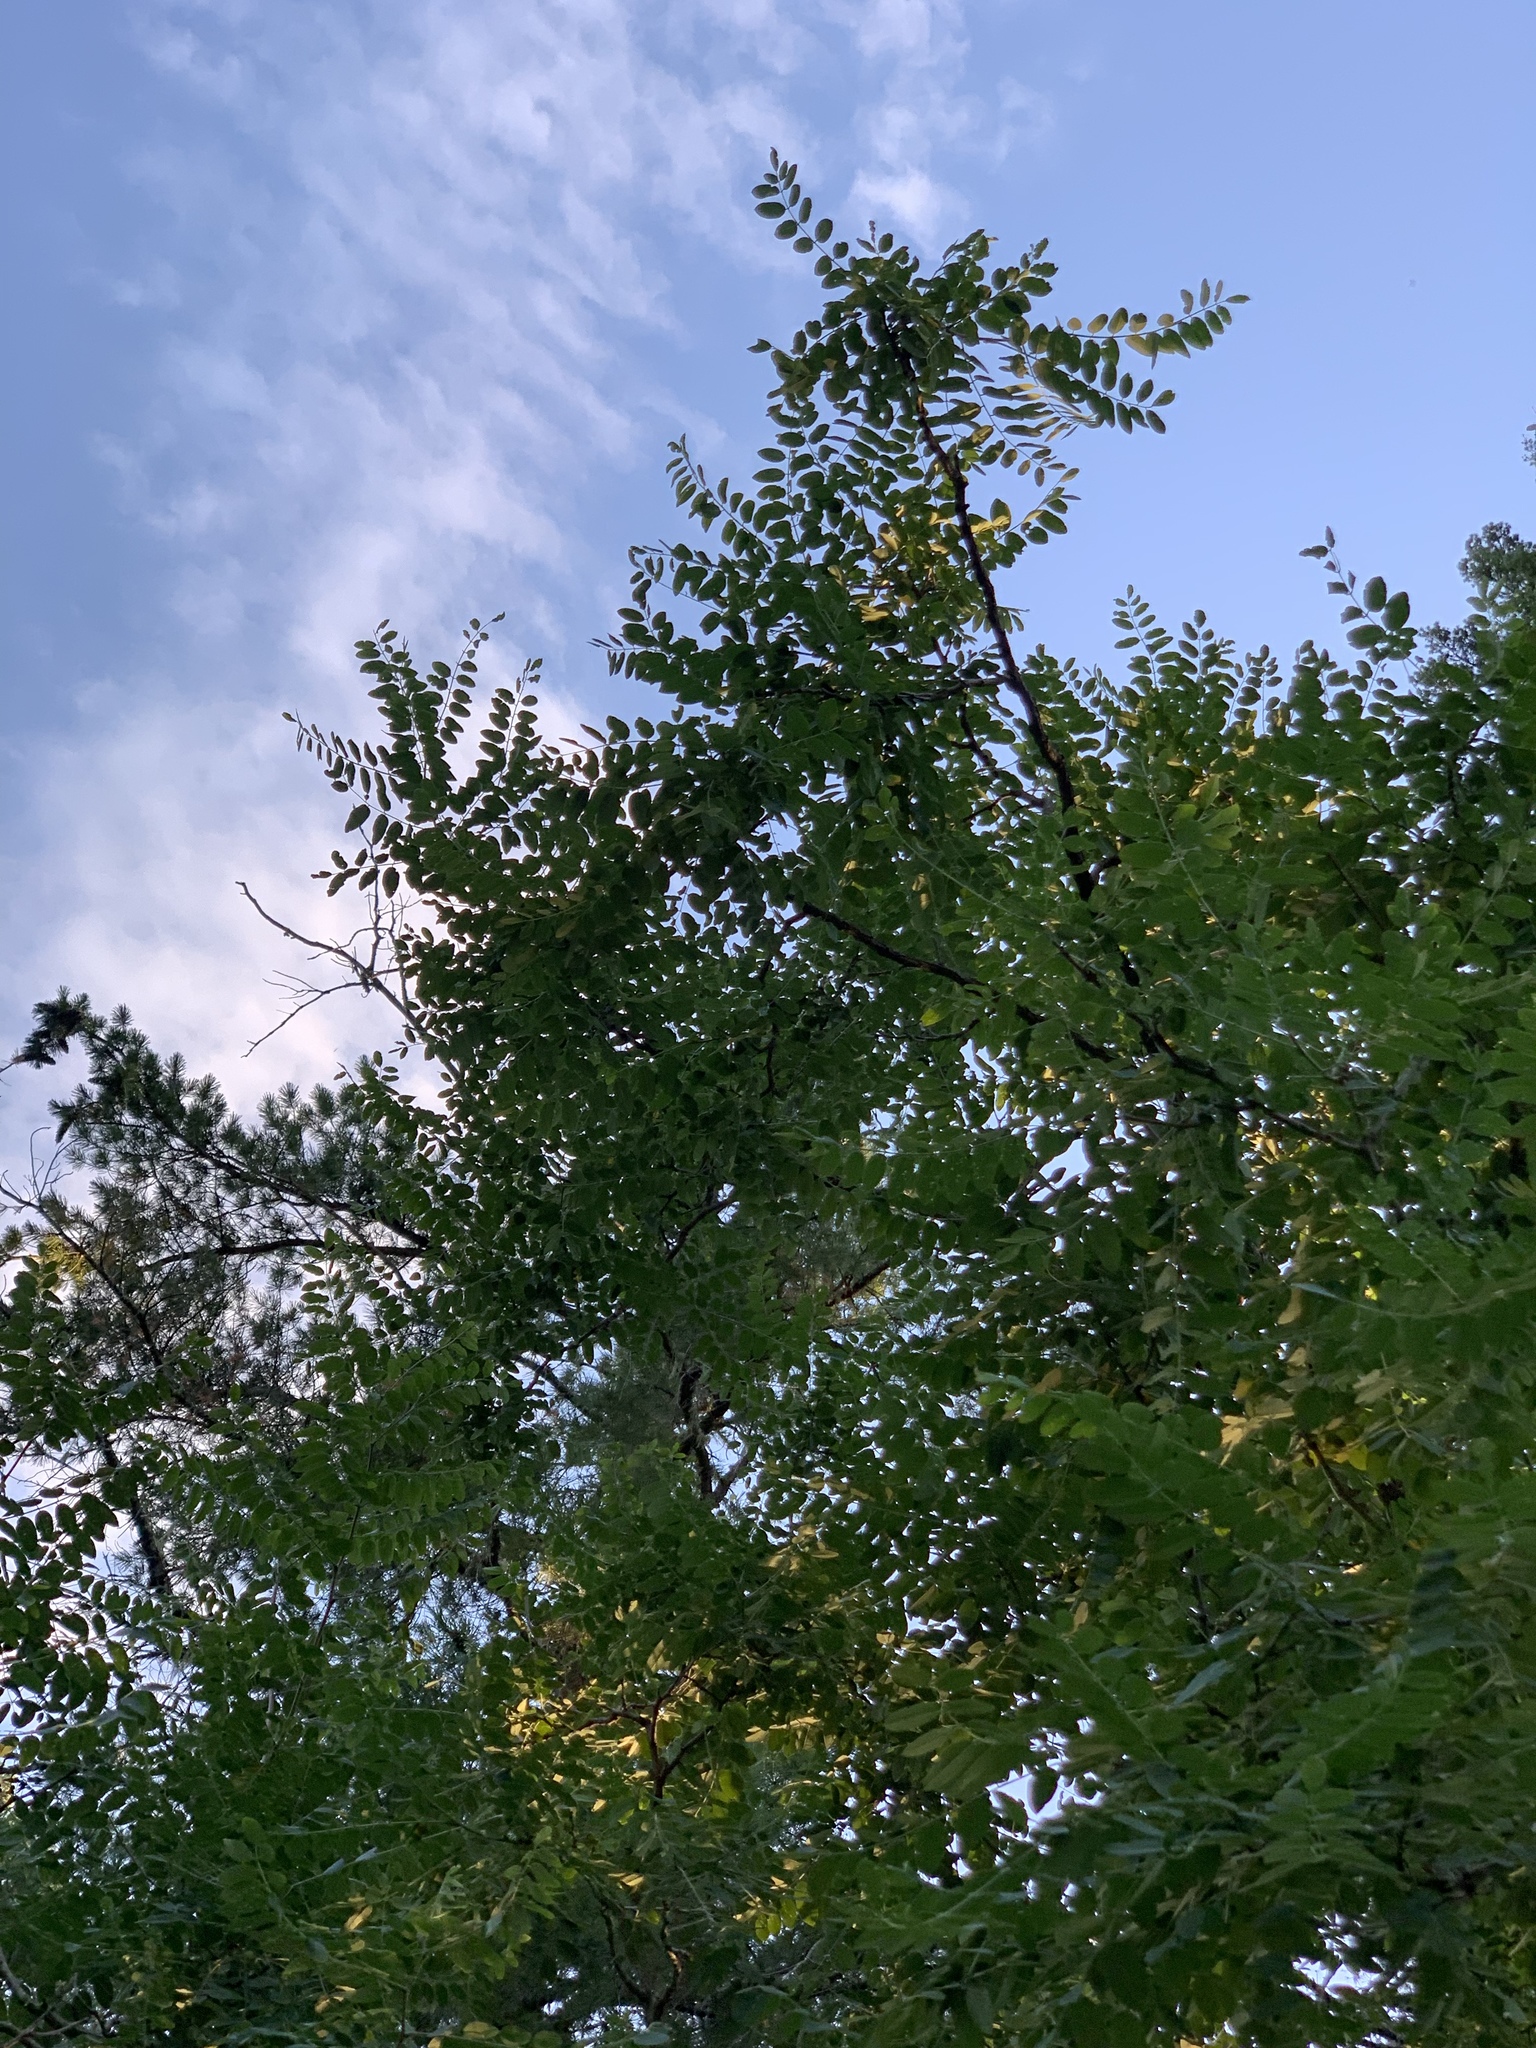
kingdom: Plantae
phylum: Tracheophyta
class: Magnoliopsida
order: Fabales
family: Fabaceae
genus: Robinia
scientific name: Robinia neomexicana
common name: New mexico locust
